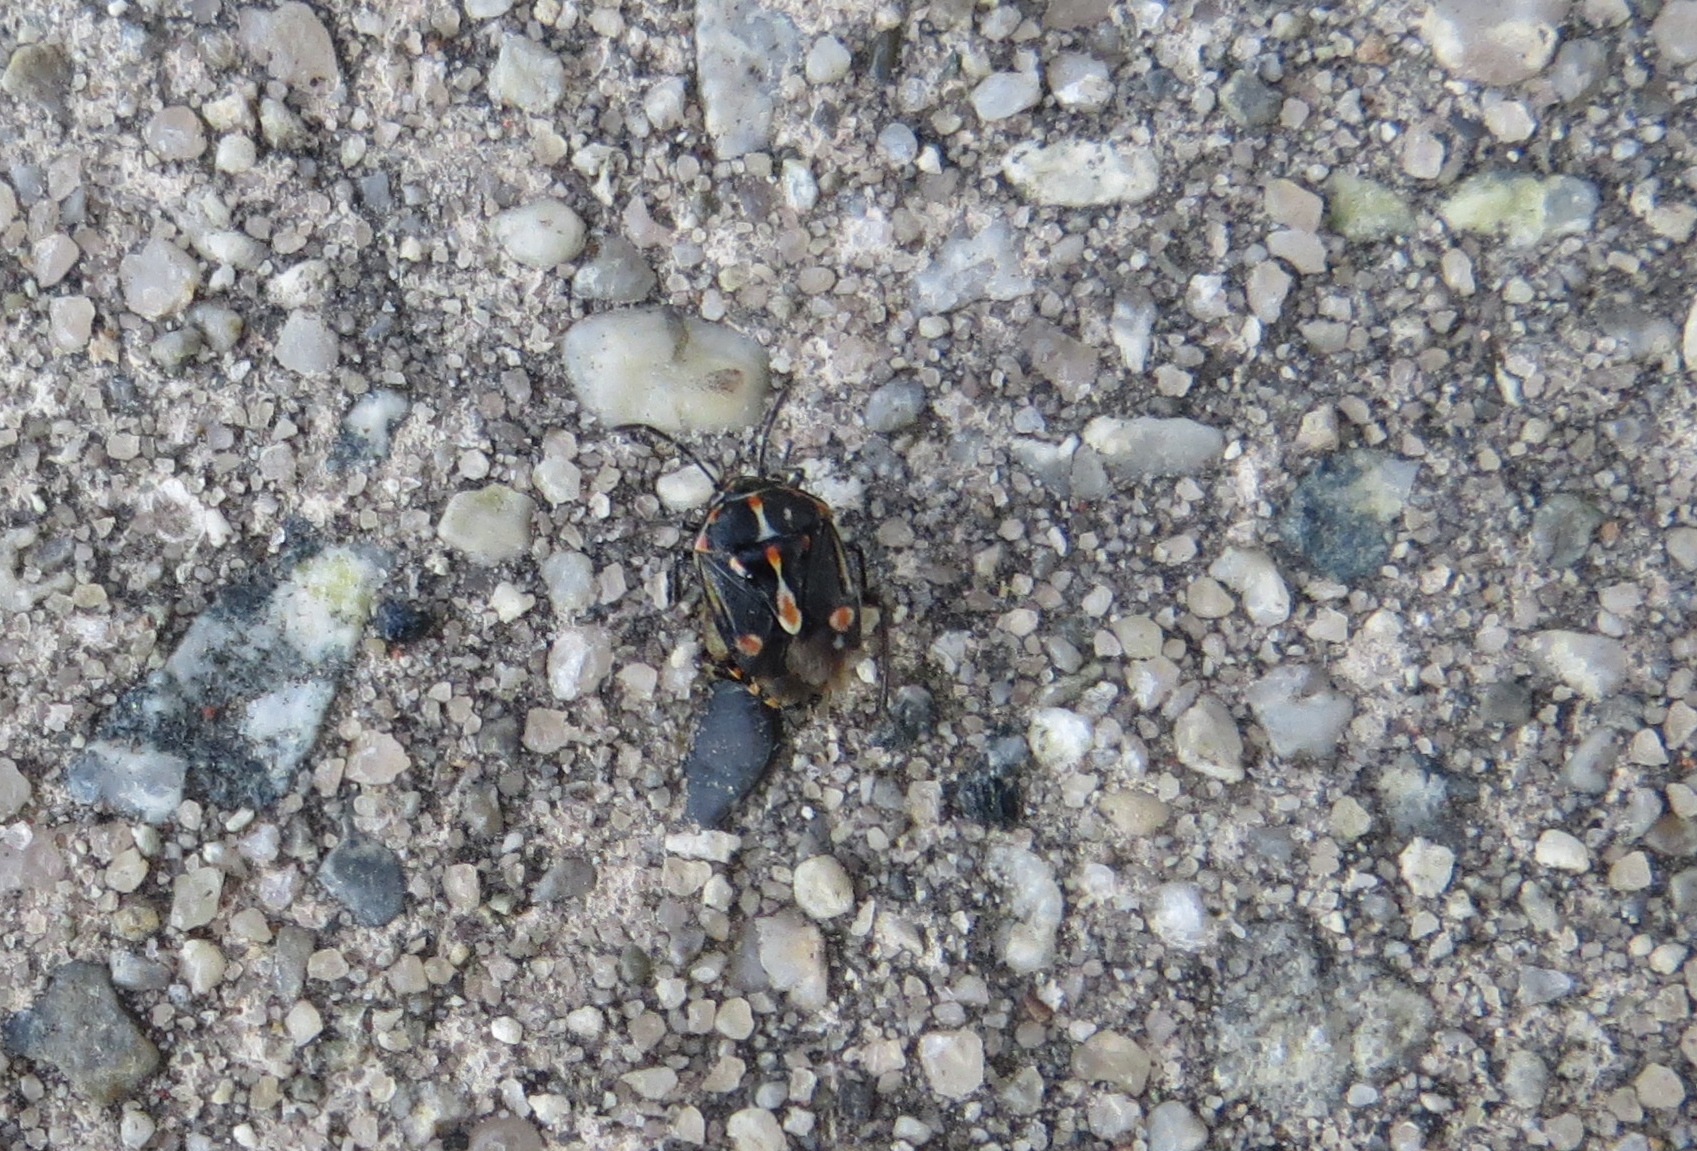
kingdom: Animalia
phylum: Arthropoda
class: Insecta
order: Hemiptera
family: Pentatomidae
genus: Bagrada
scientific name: Bagrada hilaris
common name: Bagrada bug
